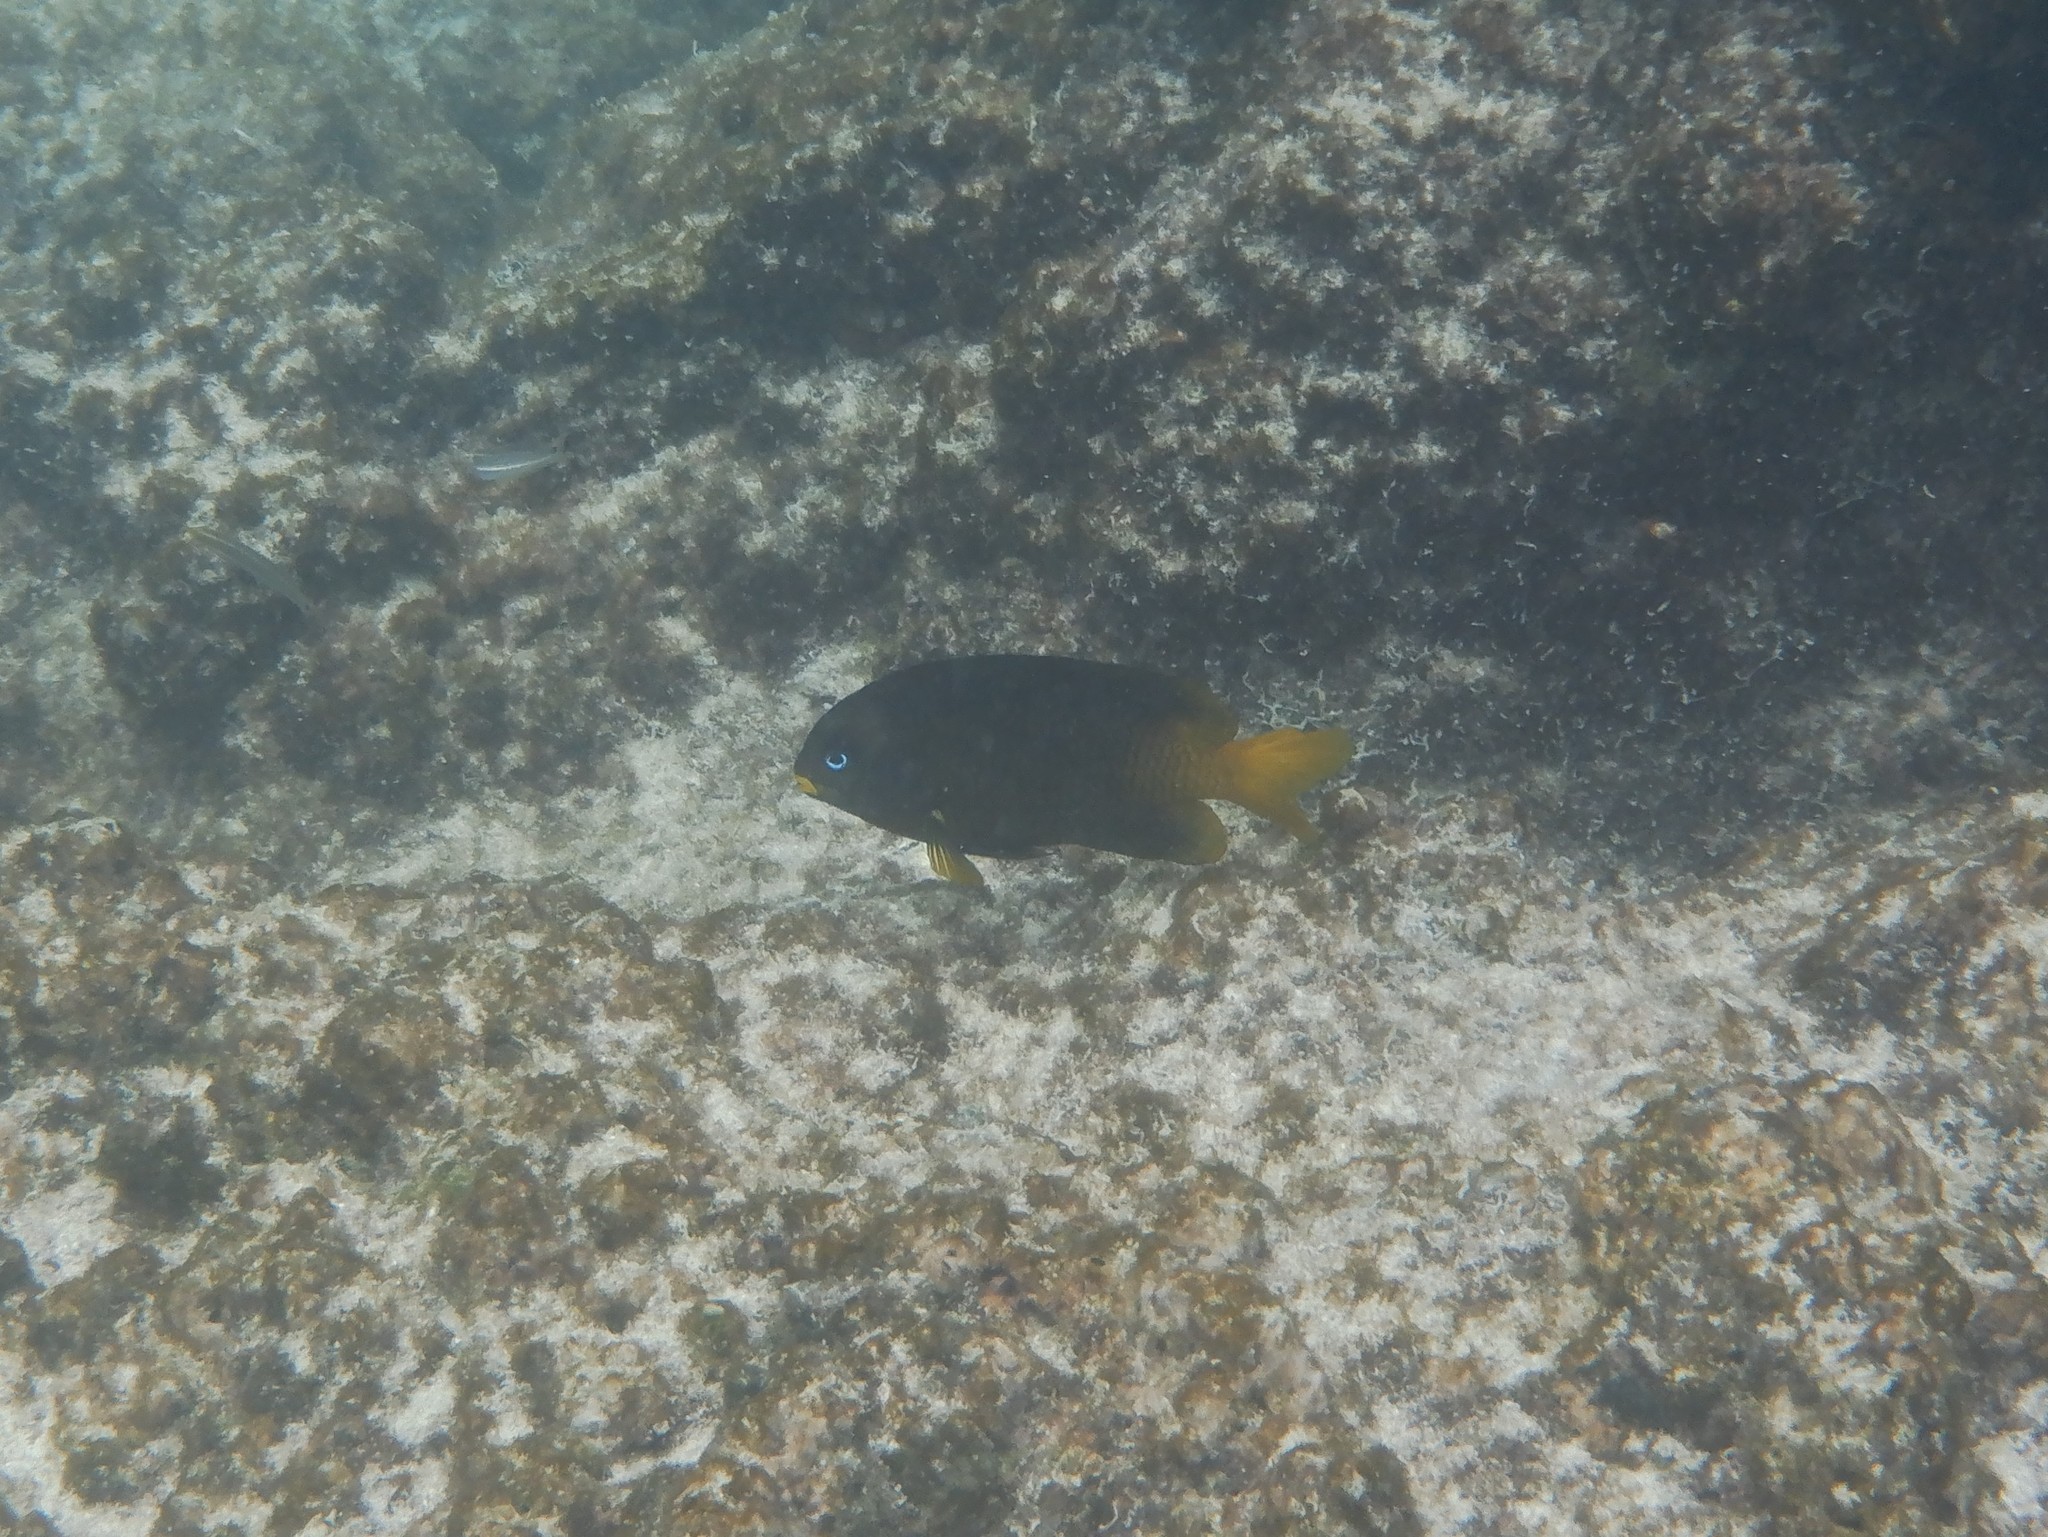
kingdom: Animalia
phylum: Chordata
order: Perciformes
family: Pomacentridae
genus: Stegastes
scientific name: Stegastes arcifrons
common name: Galapagos gregory
